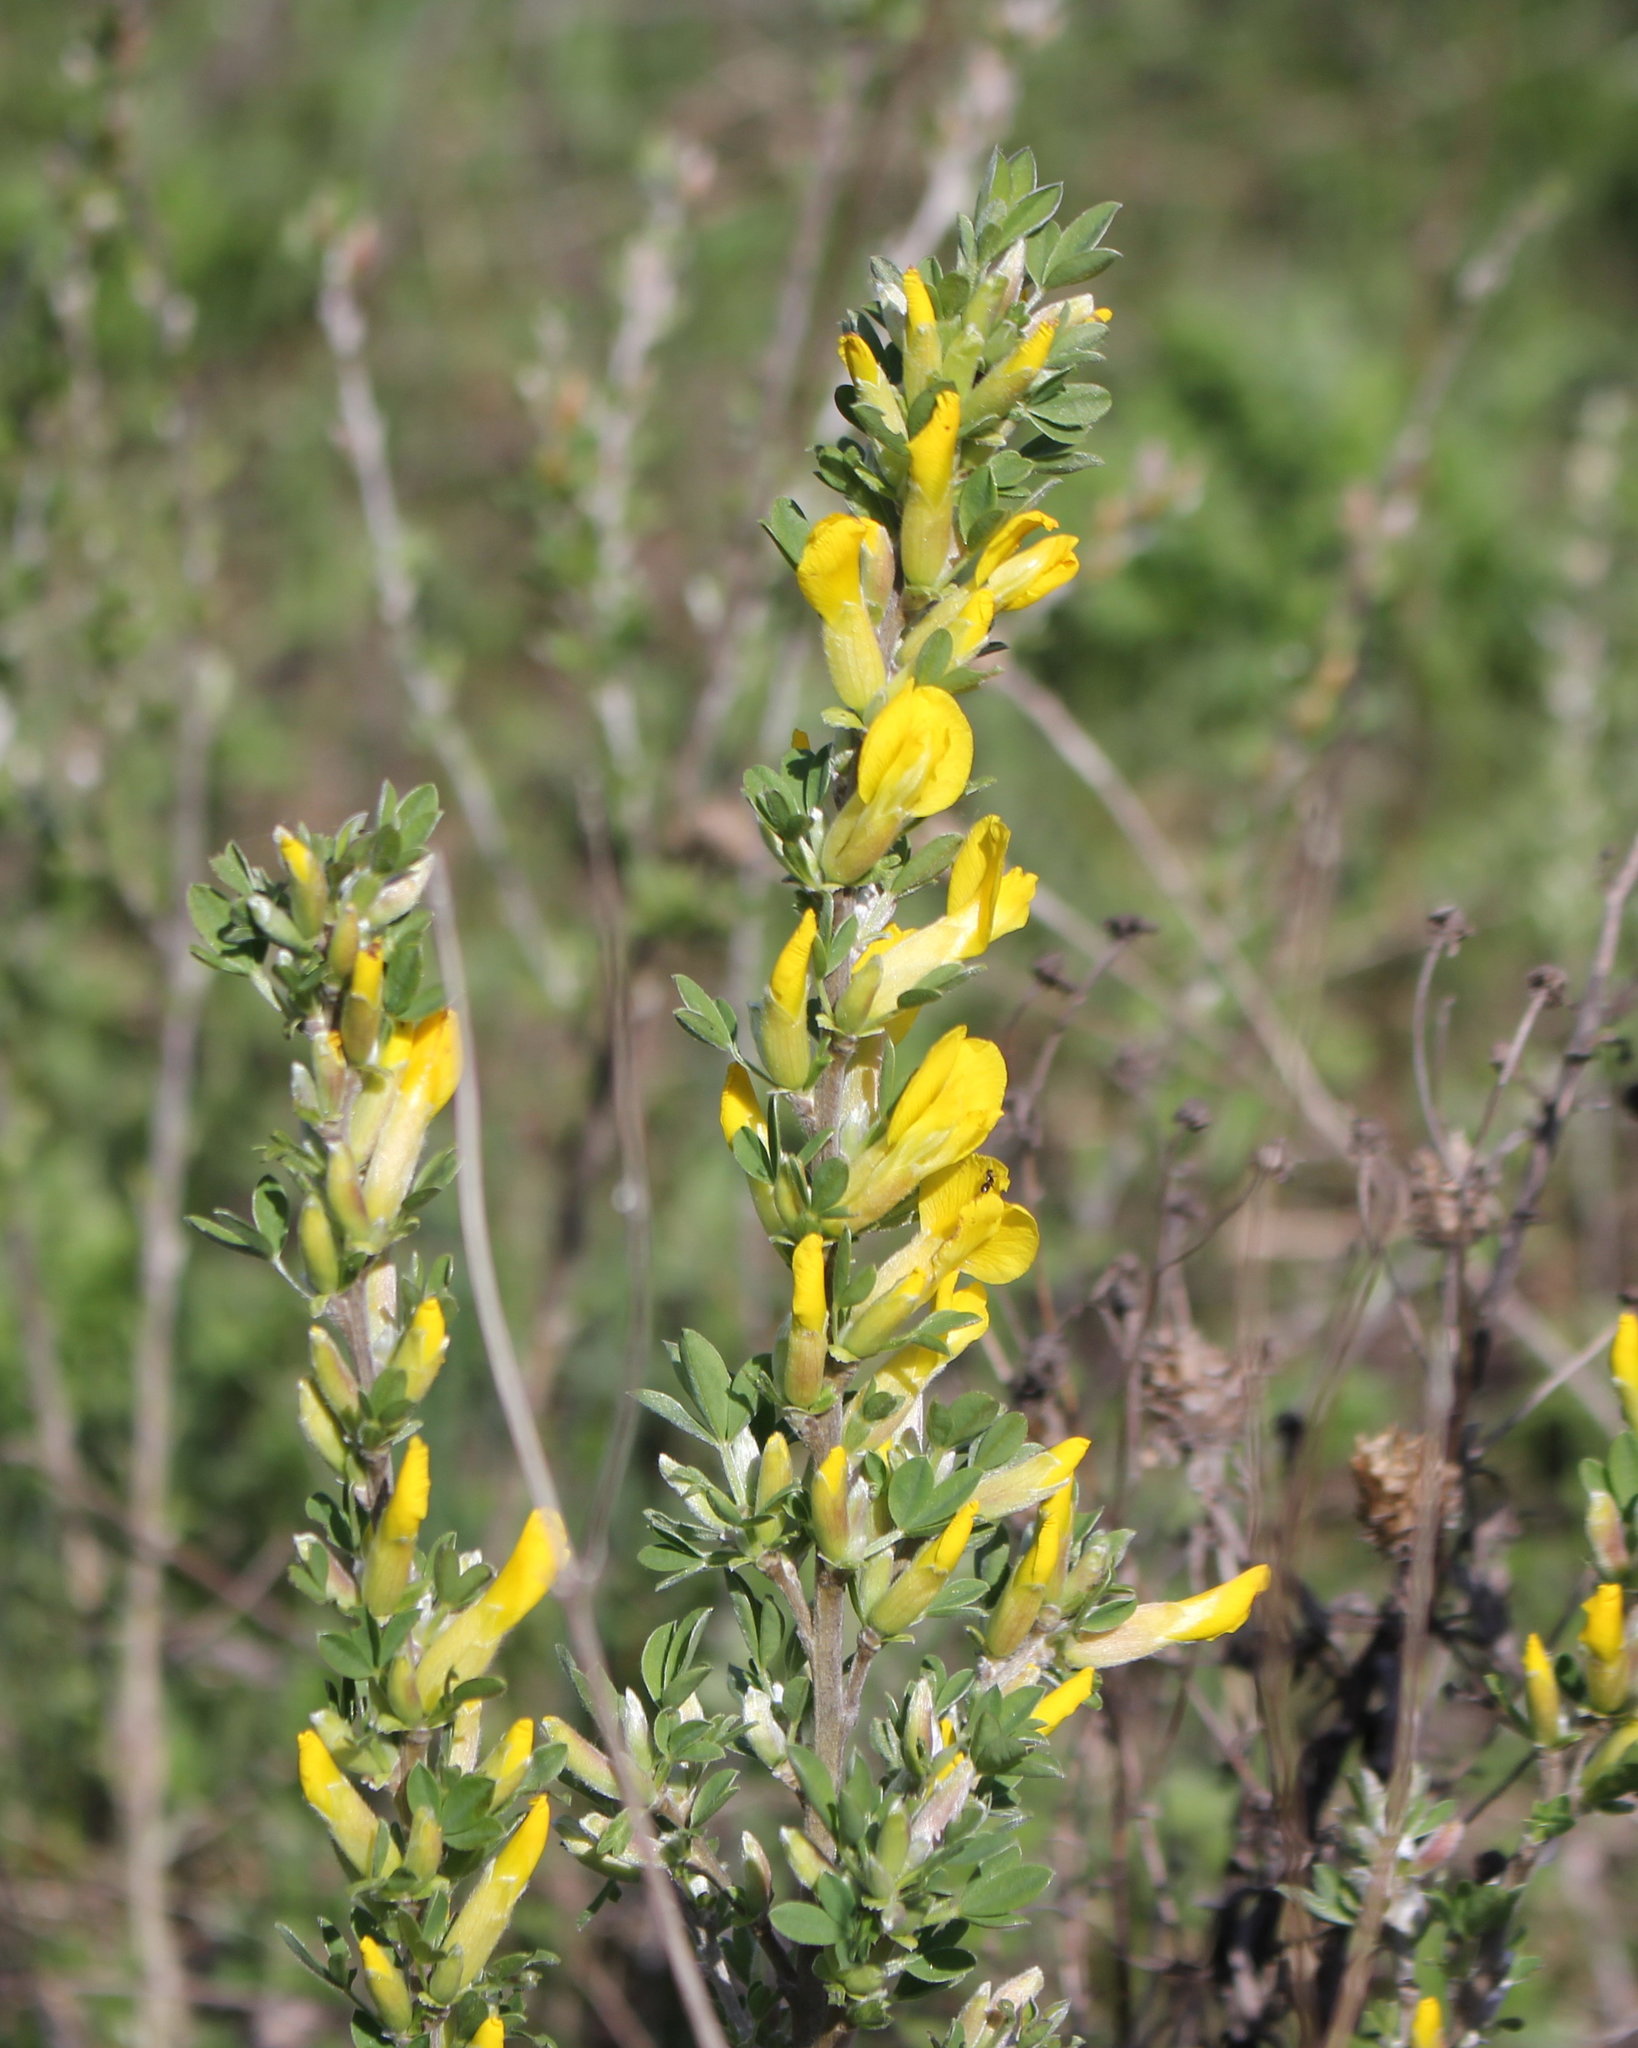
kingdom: Plantae
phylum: Tracheophyta
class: Magnoliopsida
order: Fabales
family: Fabaceae
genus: Chamaecytisus
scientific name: Chamaecytisus ruthenicus
